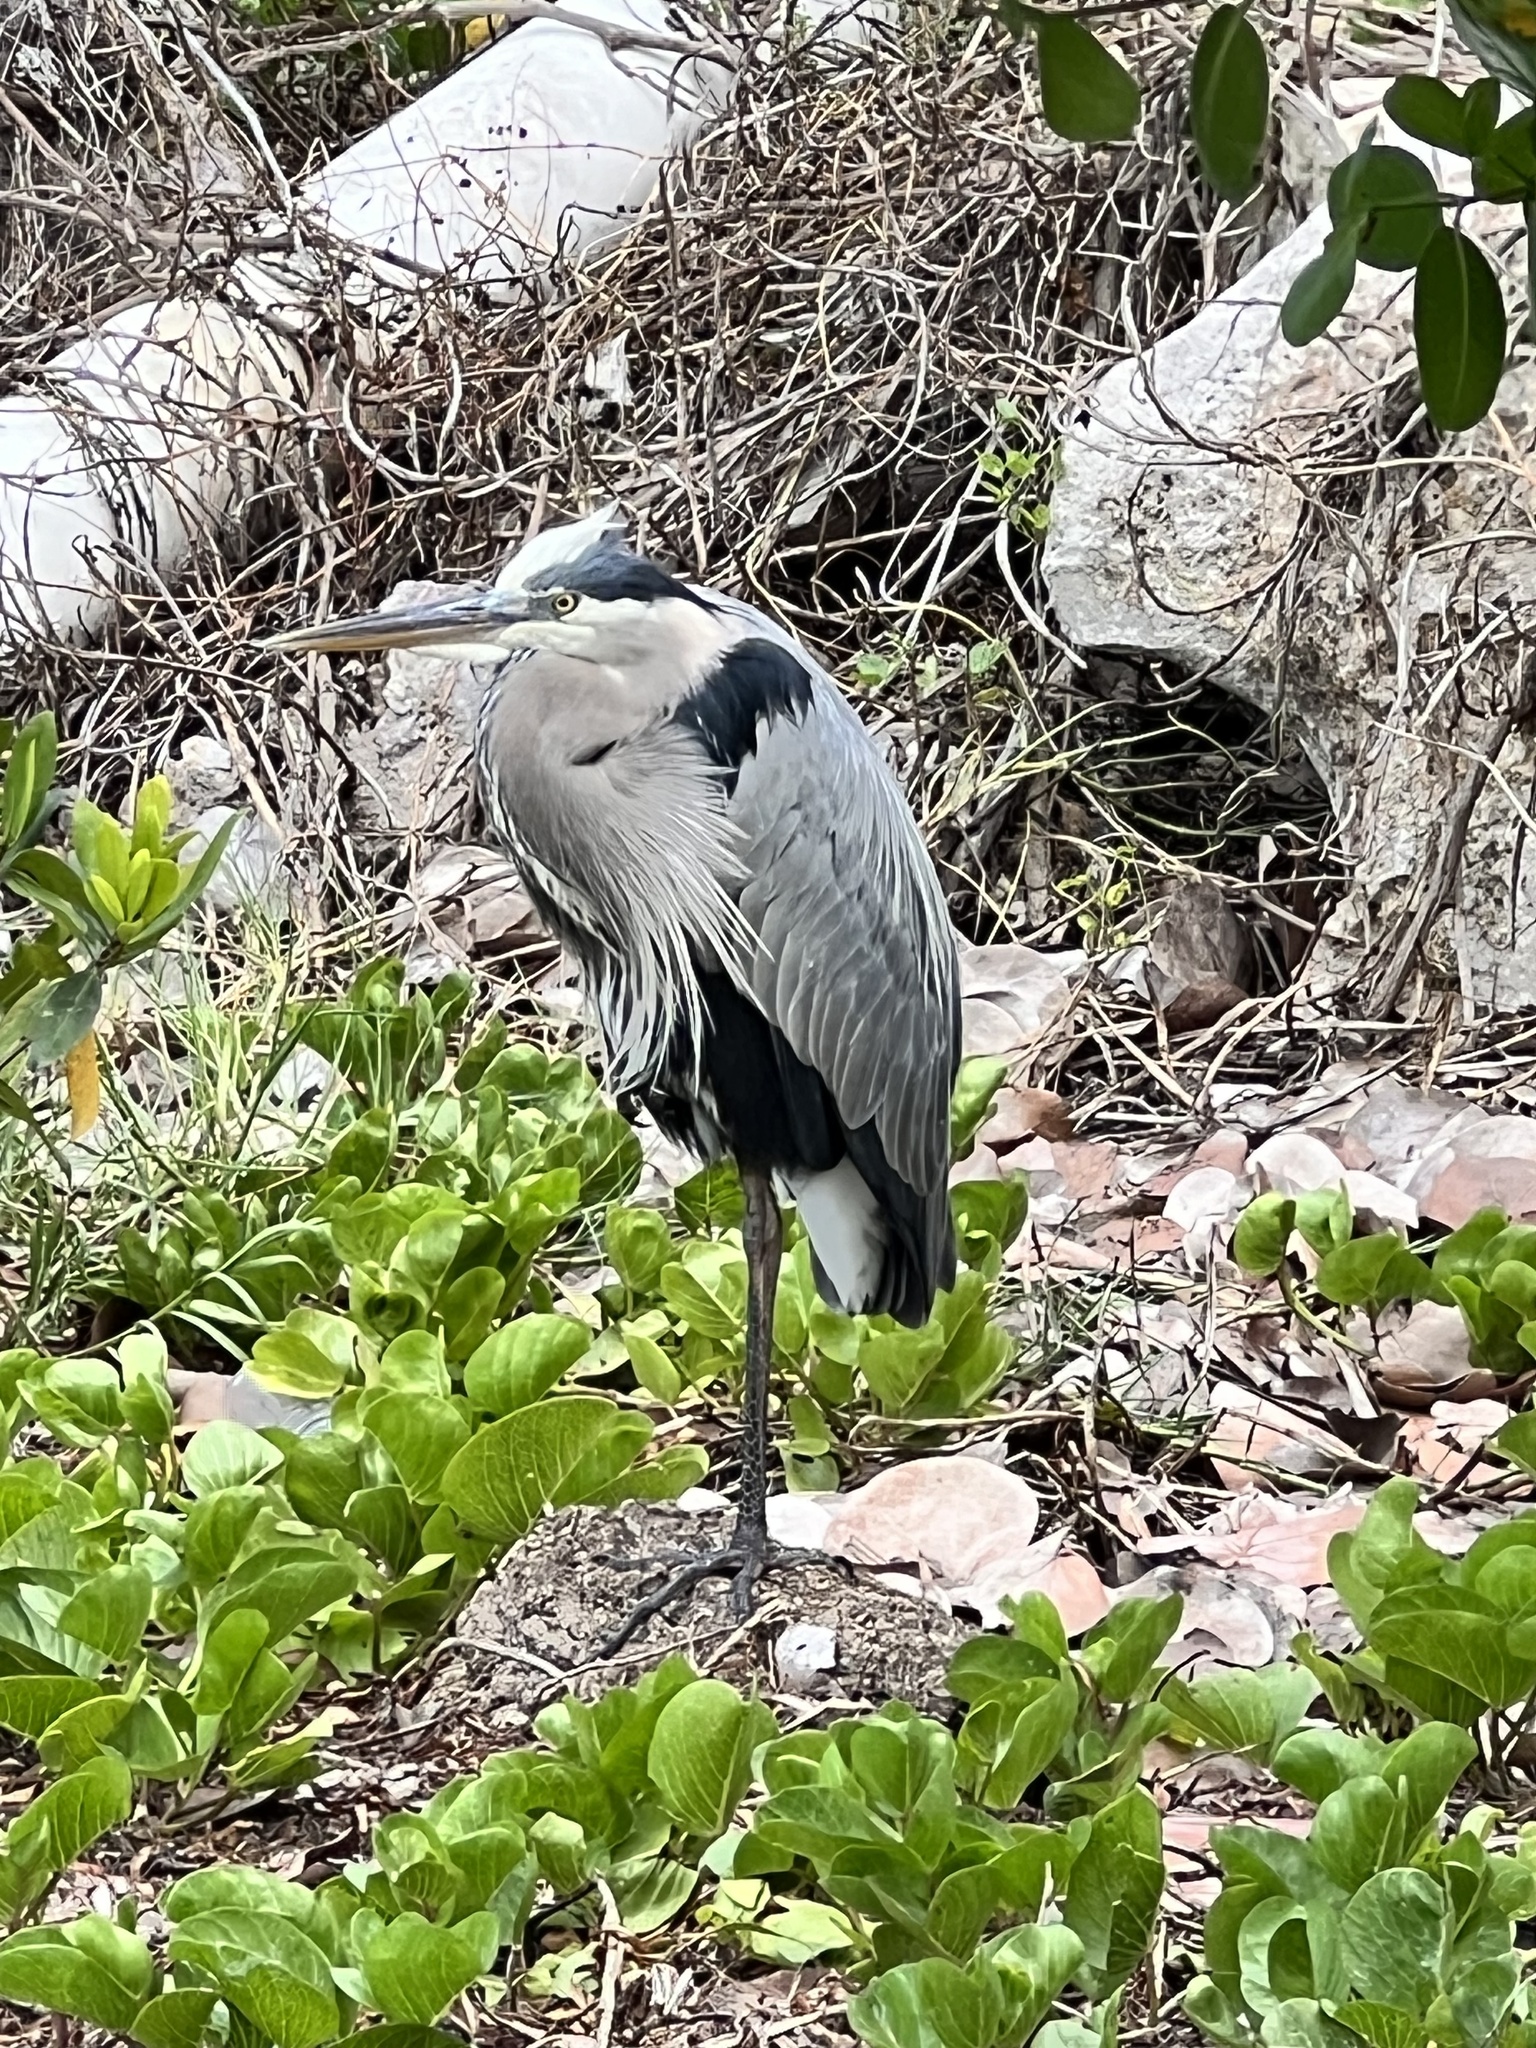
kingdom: Animalia
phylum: Chordata
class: Aves
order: Pelecaniformes
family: Ardeidae
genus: Ardea
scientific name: Ardea herodias
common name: Great blue heron
